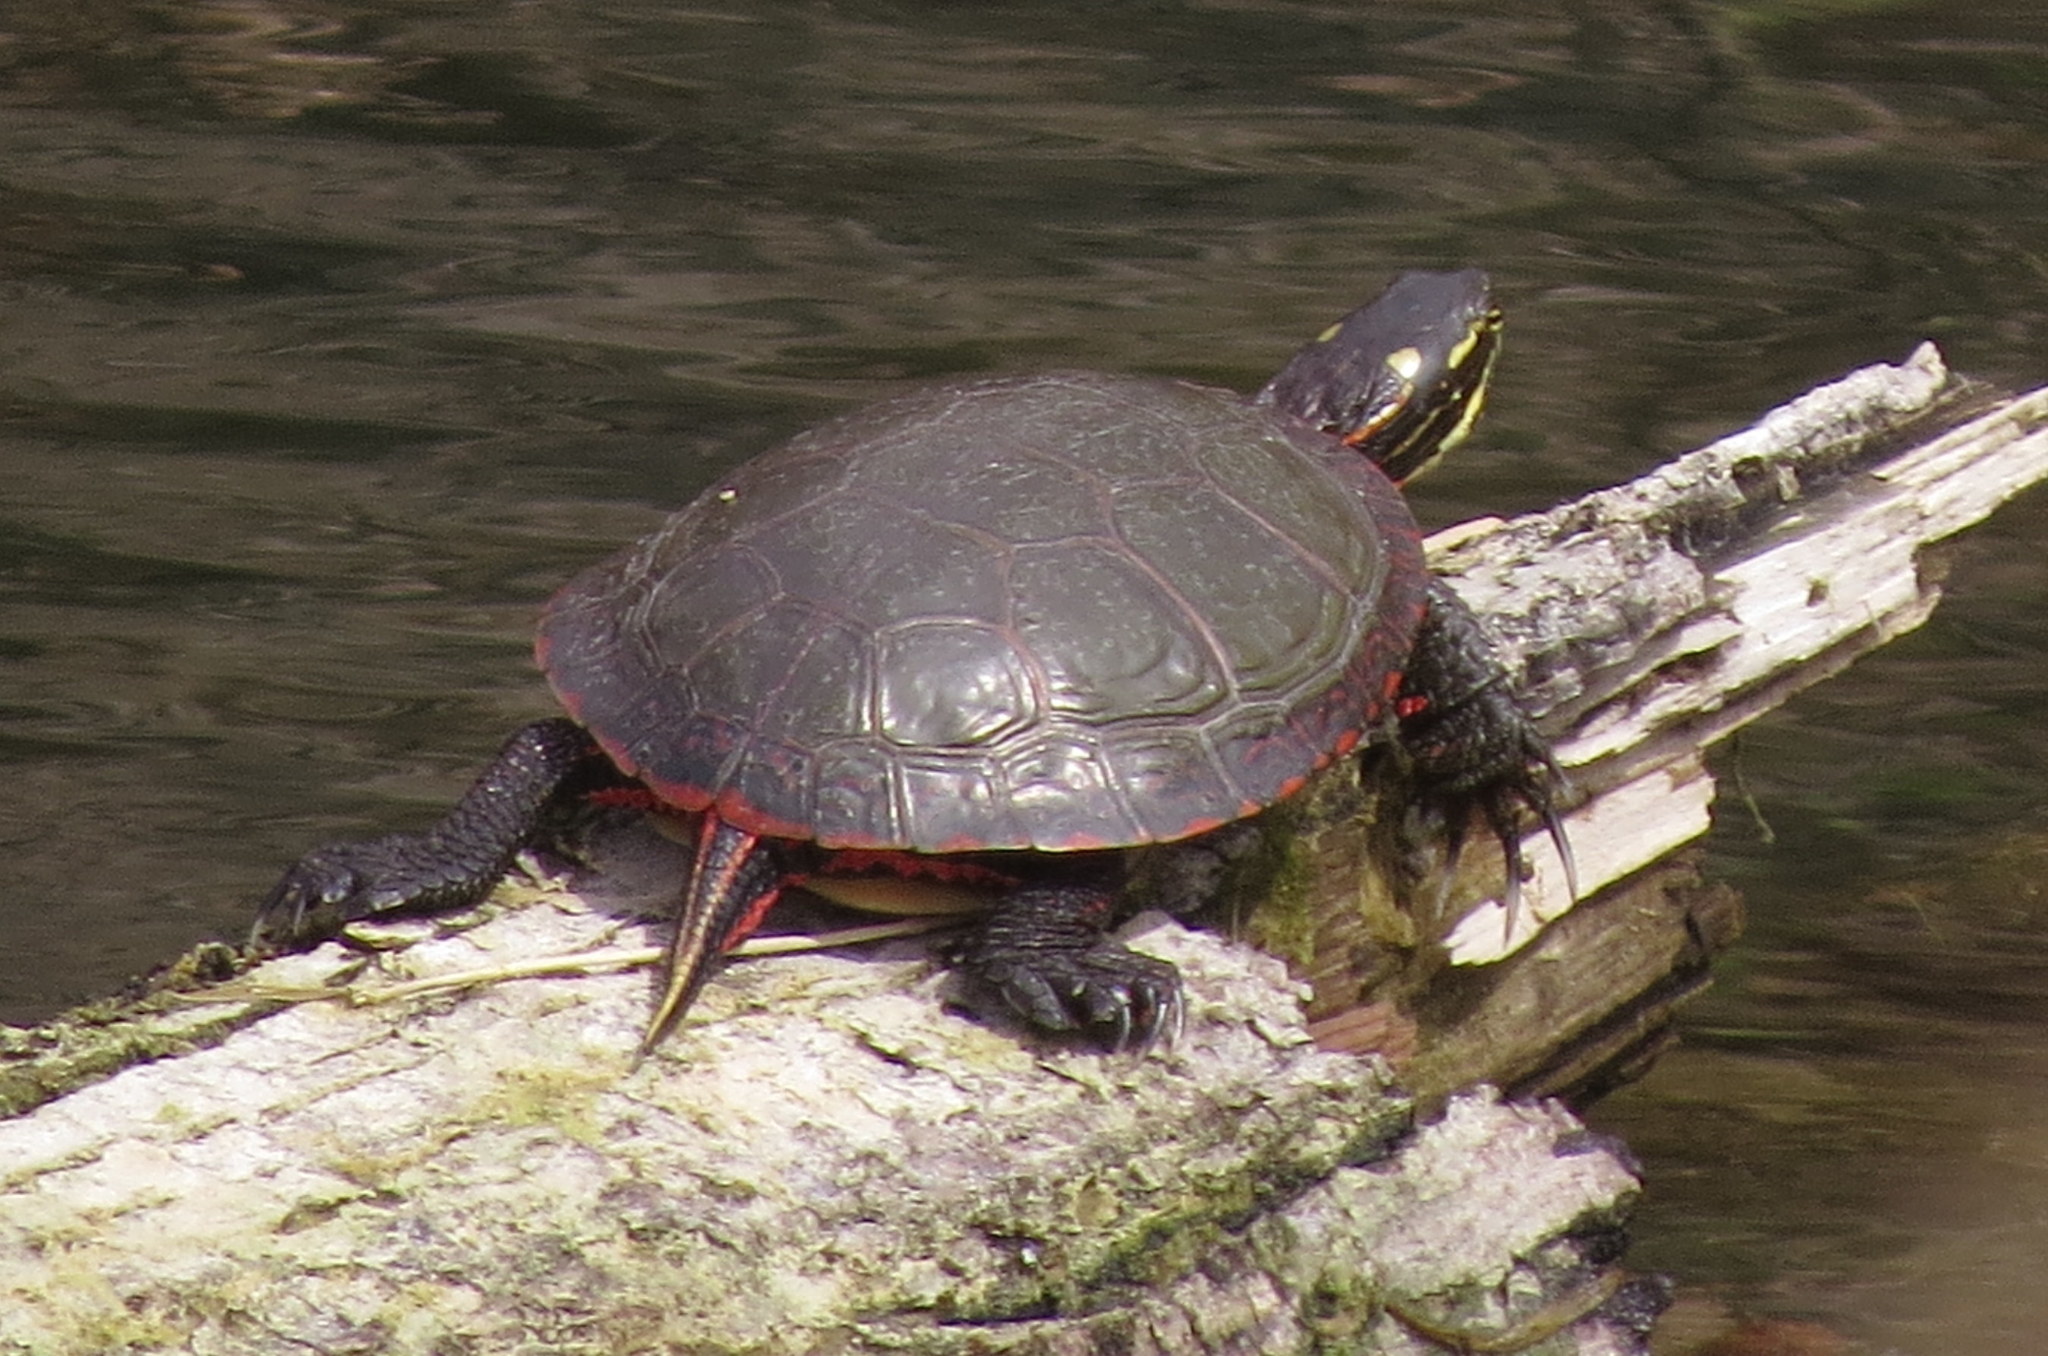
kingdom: Animalia
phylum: Chordata
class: Testudines
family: Emydidae
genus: Chrysemys
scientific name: Chrysemys picta
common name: Painted turtle
